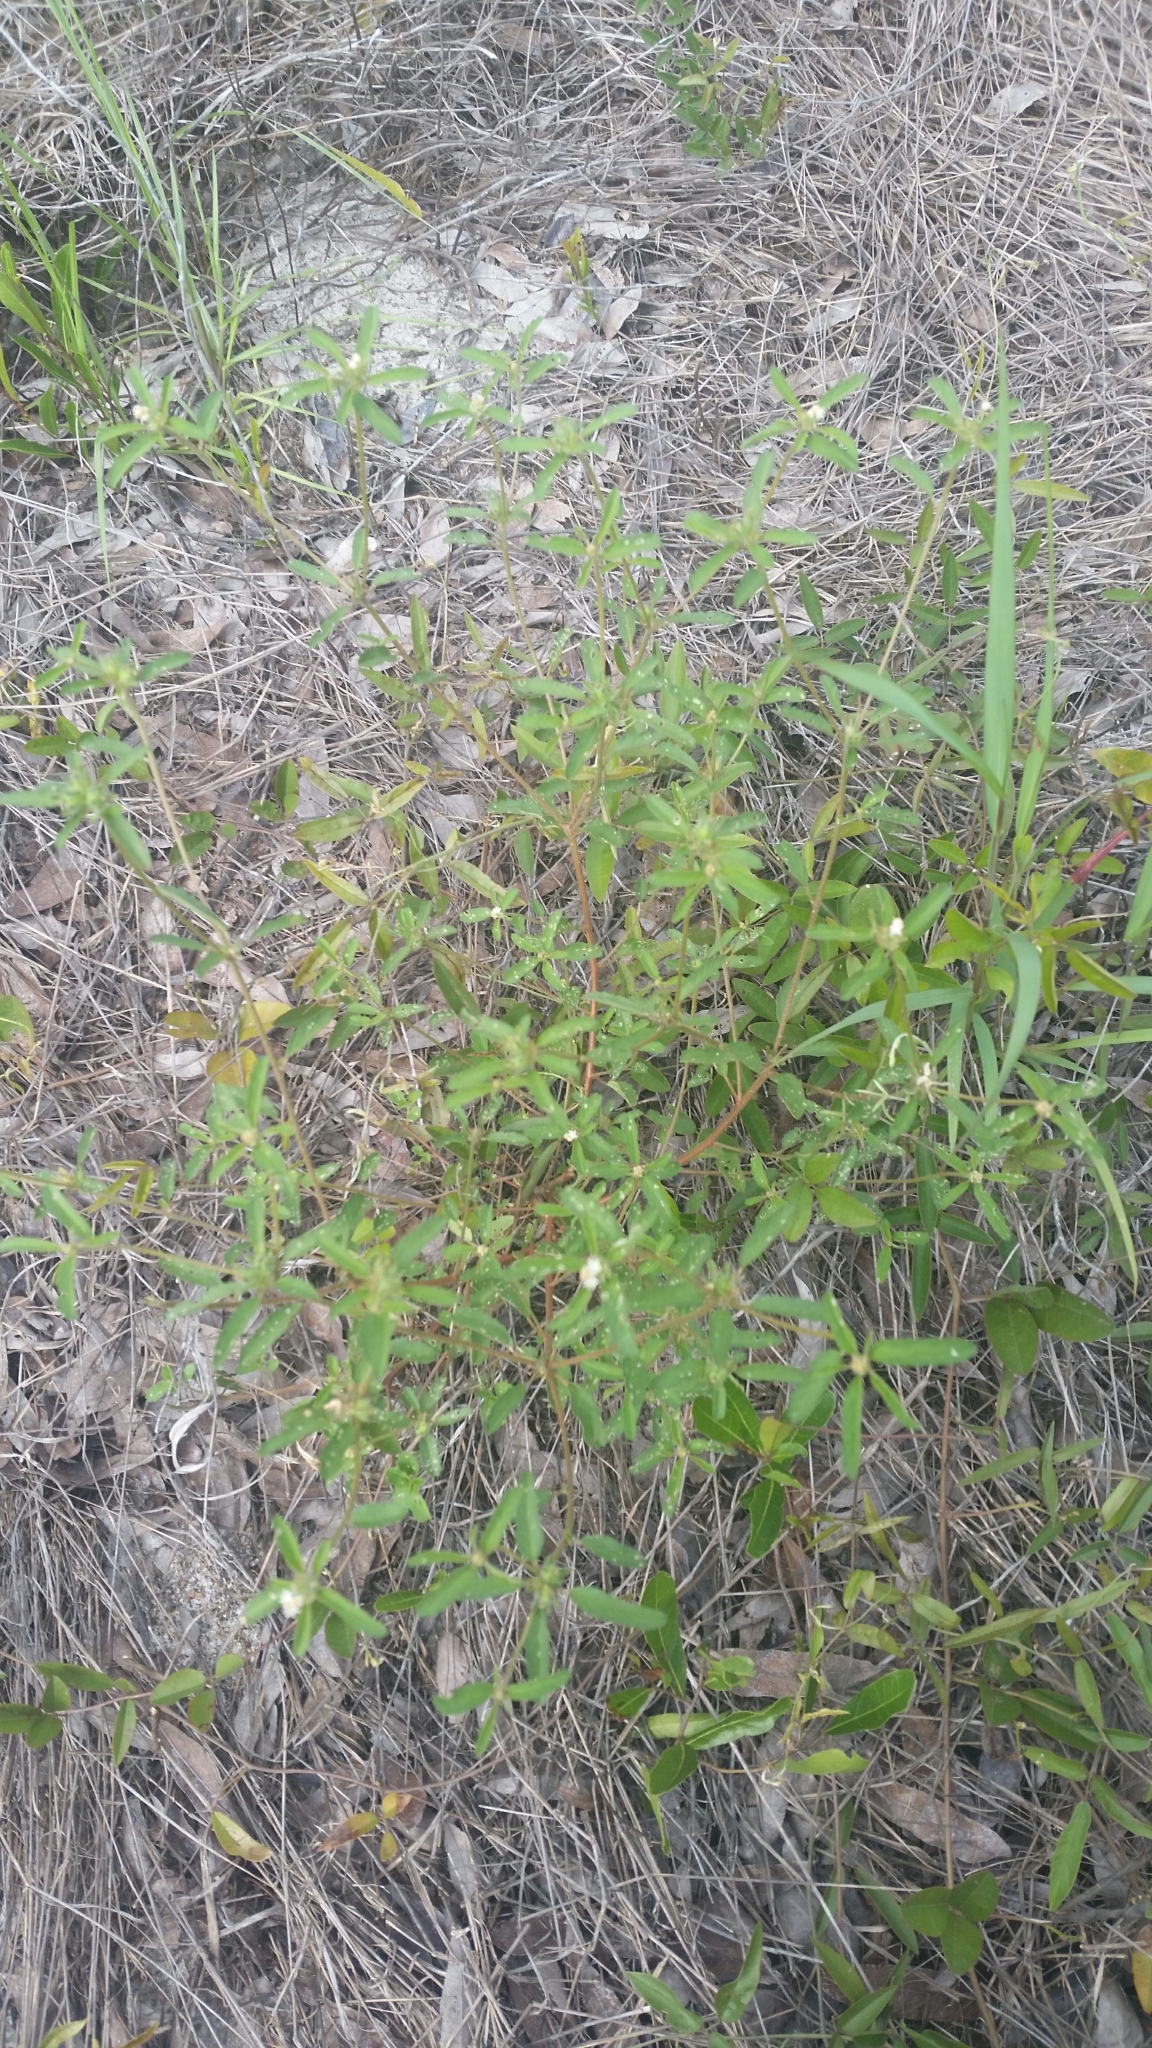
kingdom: Plantae
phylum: Tracheophyta
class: Magnoliopsida
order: Malpighiales
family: Euphorbiaceae
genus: Croton
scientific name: Croton glandulosus
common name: Tropic croton
